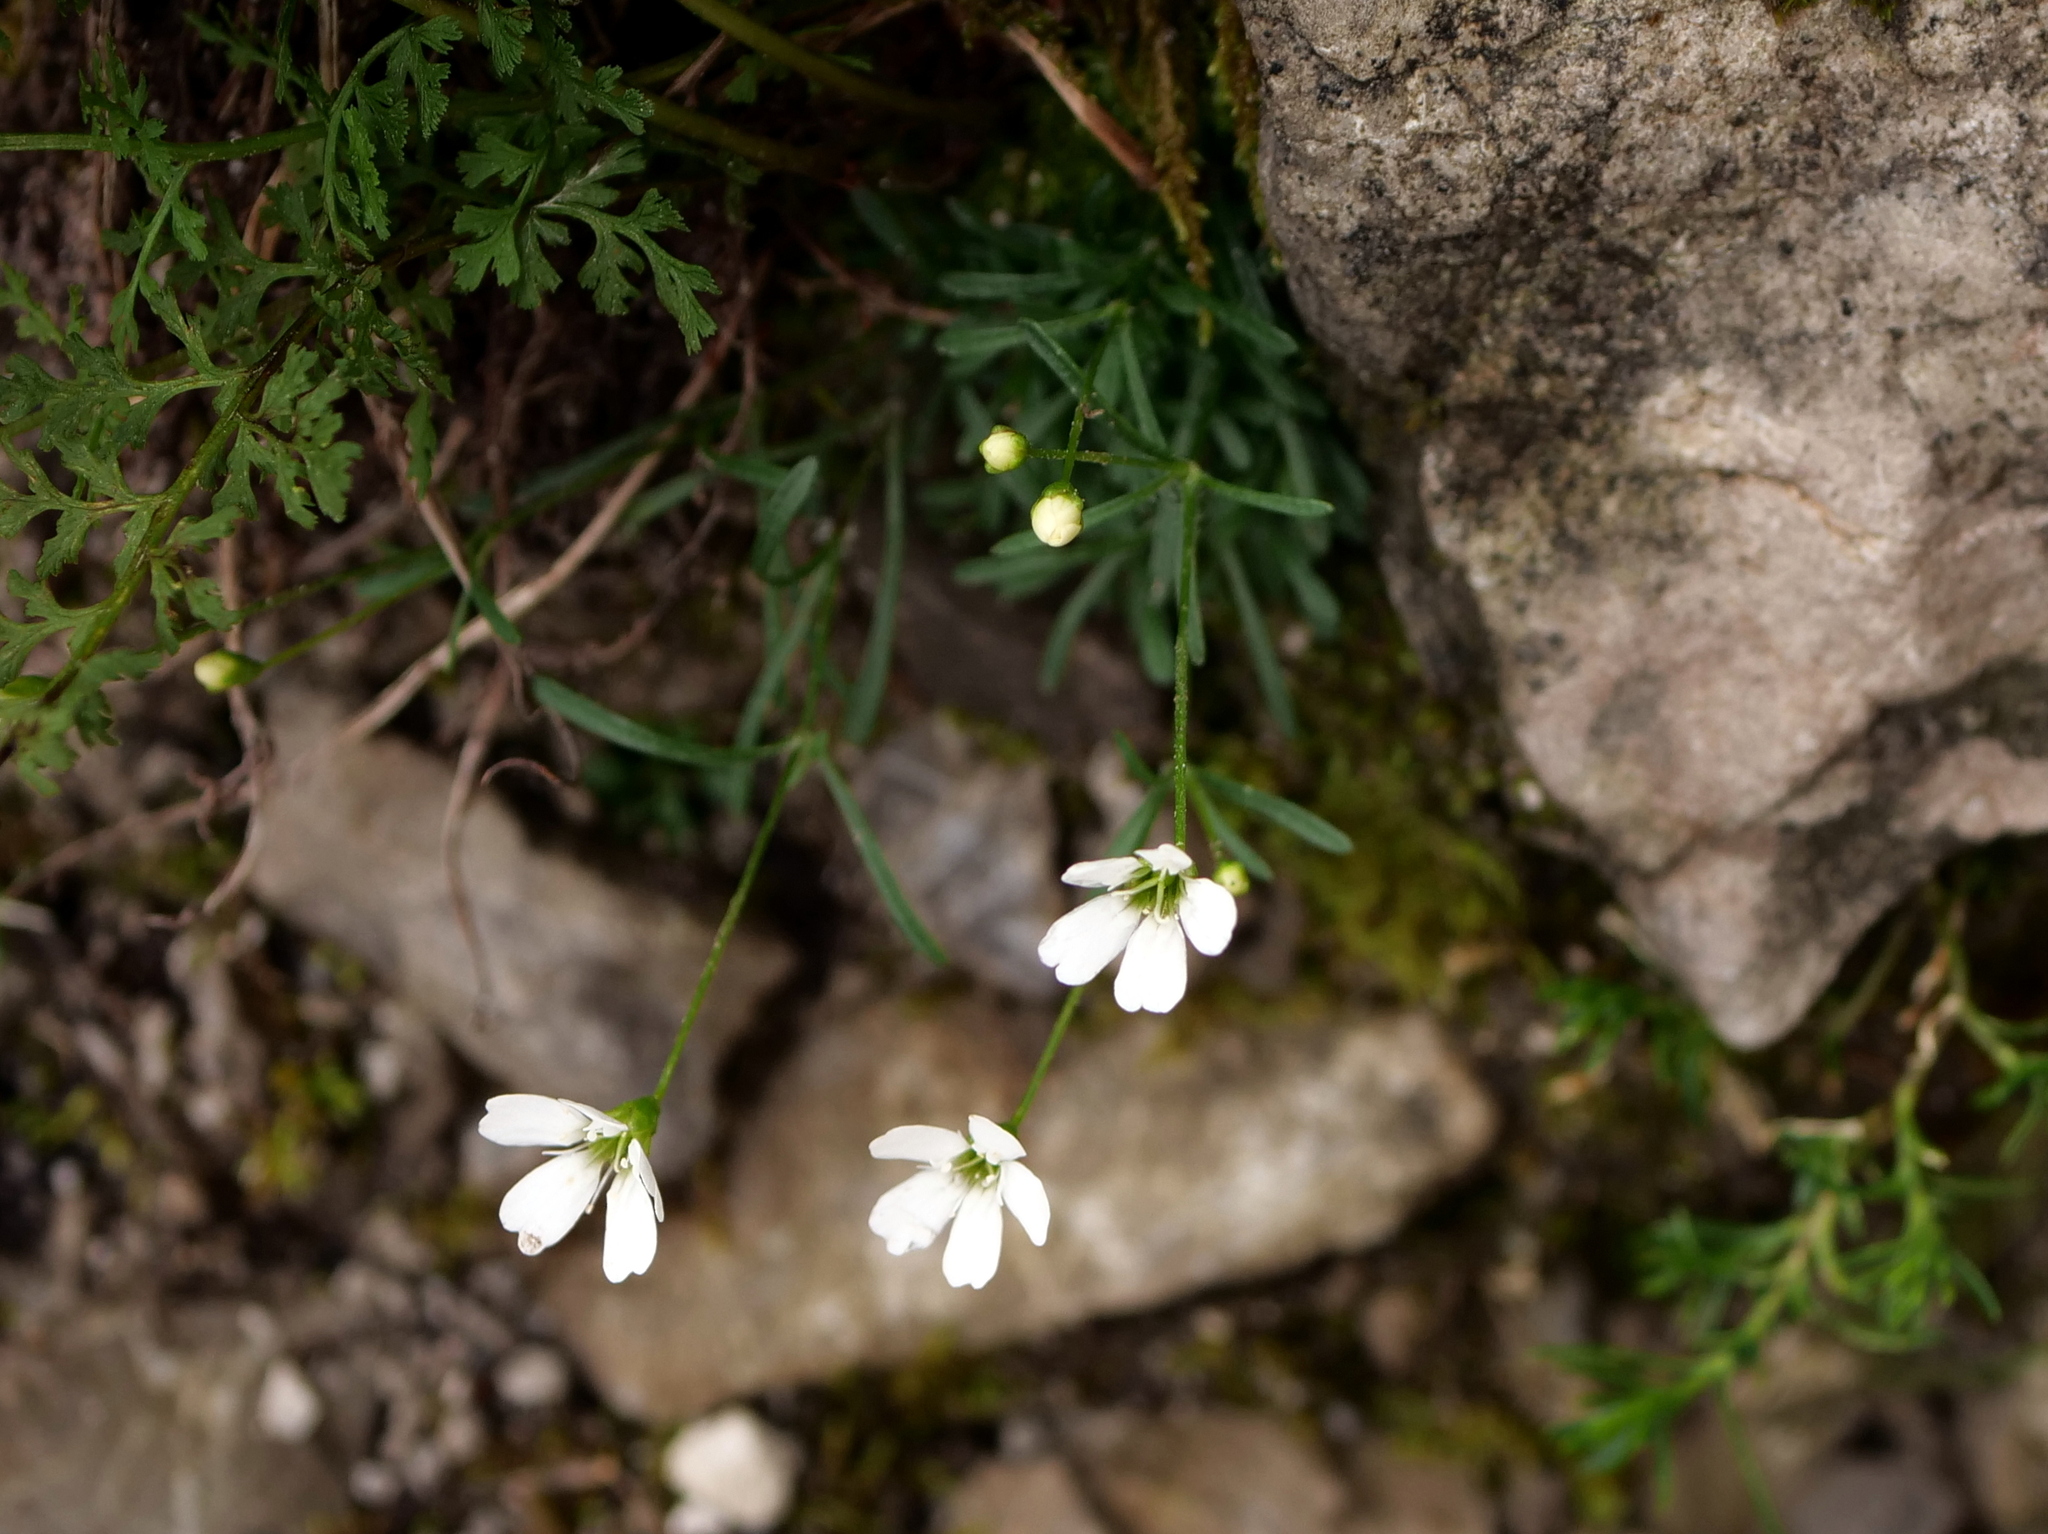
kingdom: Plantae
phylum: Tracheophyta
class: Magnoliopsida
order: Caryophyllales
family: Caryophyllaceae
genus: Heliosperma
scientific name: Heliosperma pusillum
